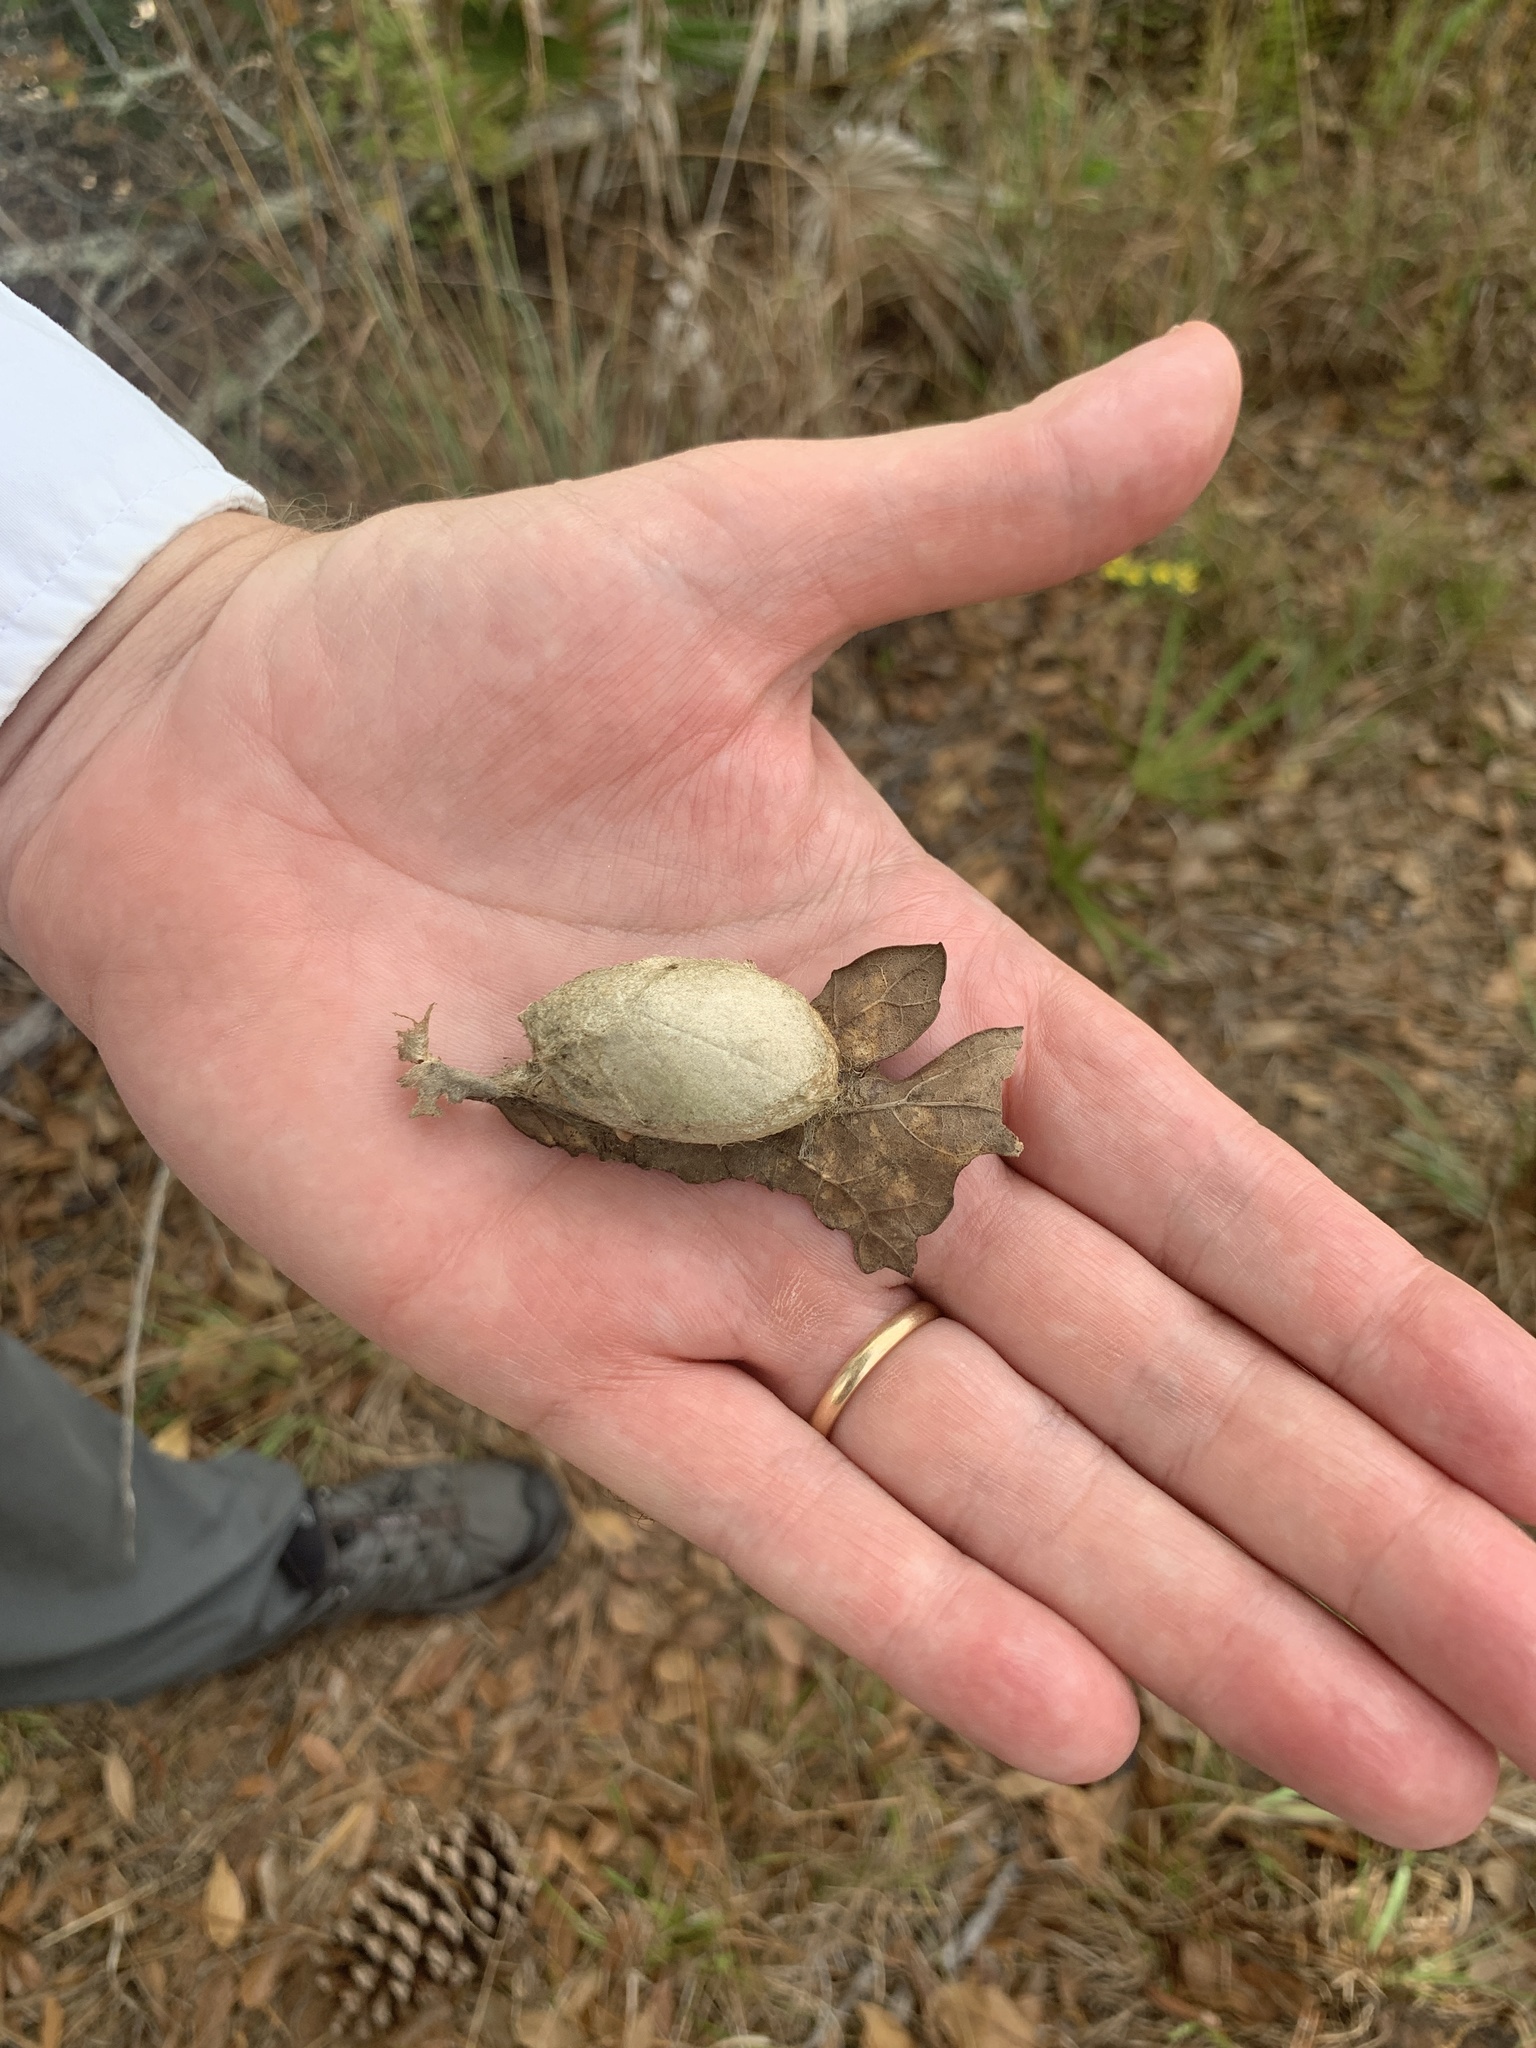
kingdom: Animalia
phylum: Arthropoda
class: Insecta
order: Lepidoptera
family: Saturniidae
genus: Antheraea
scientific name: Antheraea polyphemus
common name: Polyphemus moth
